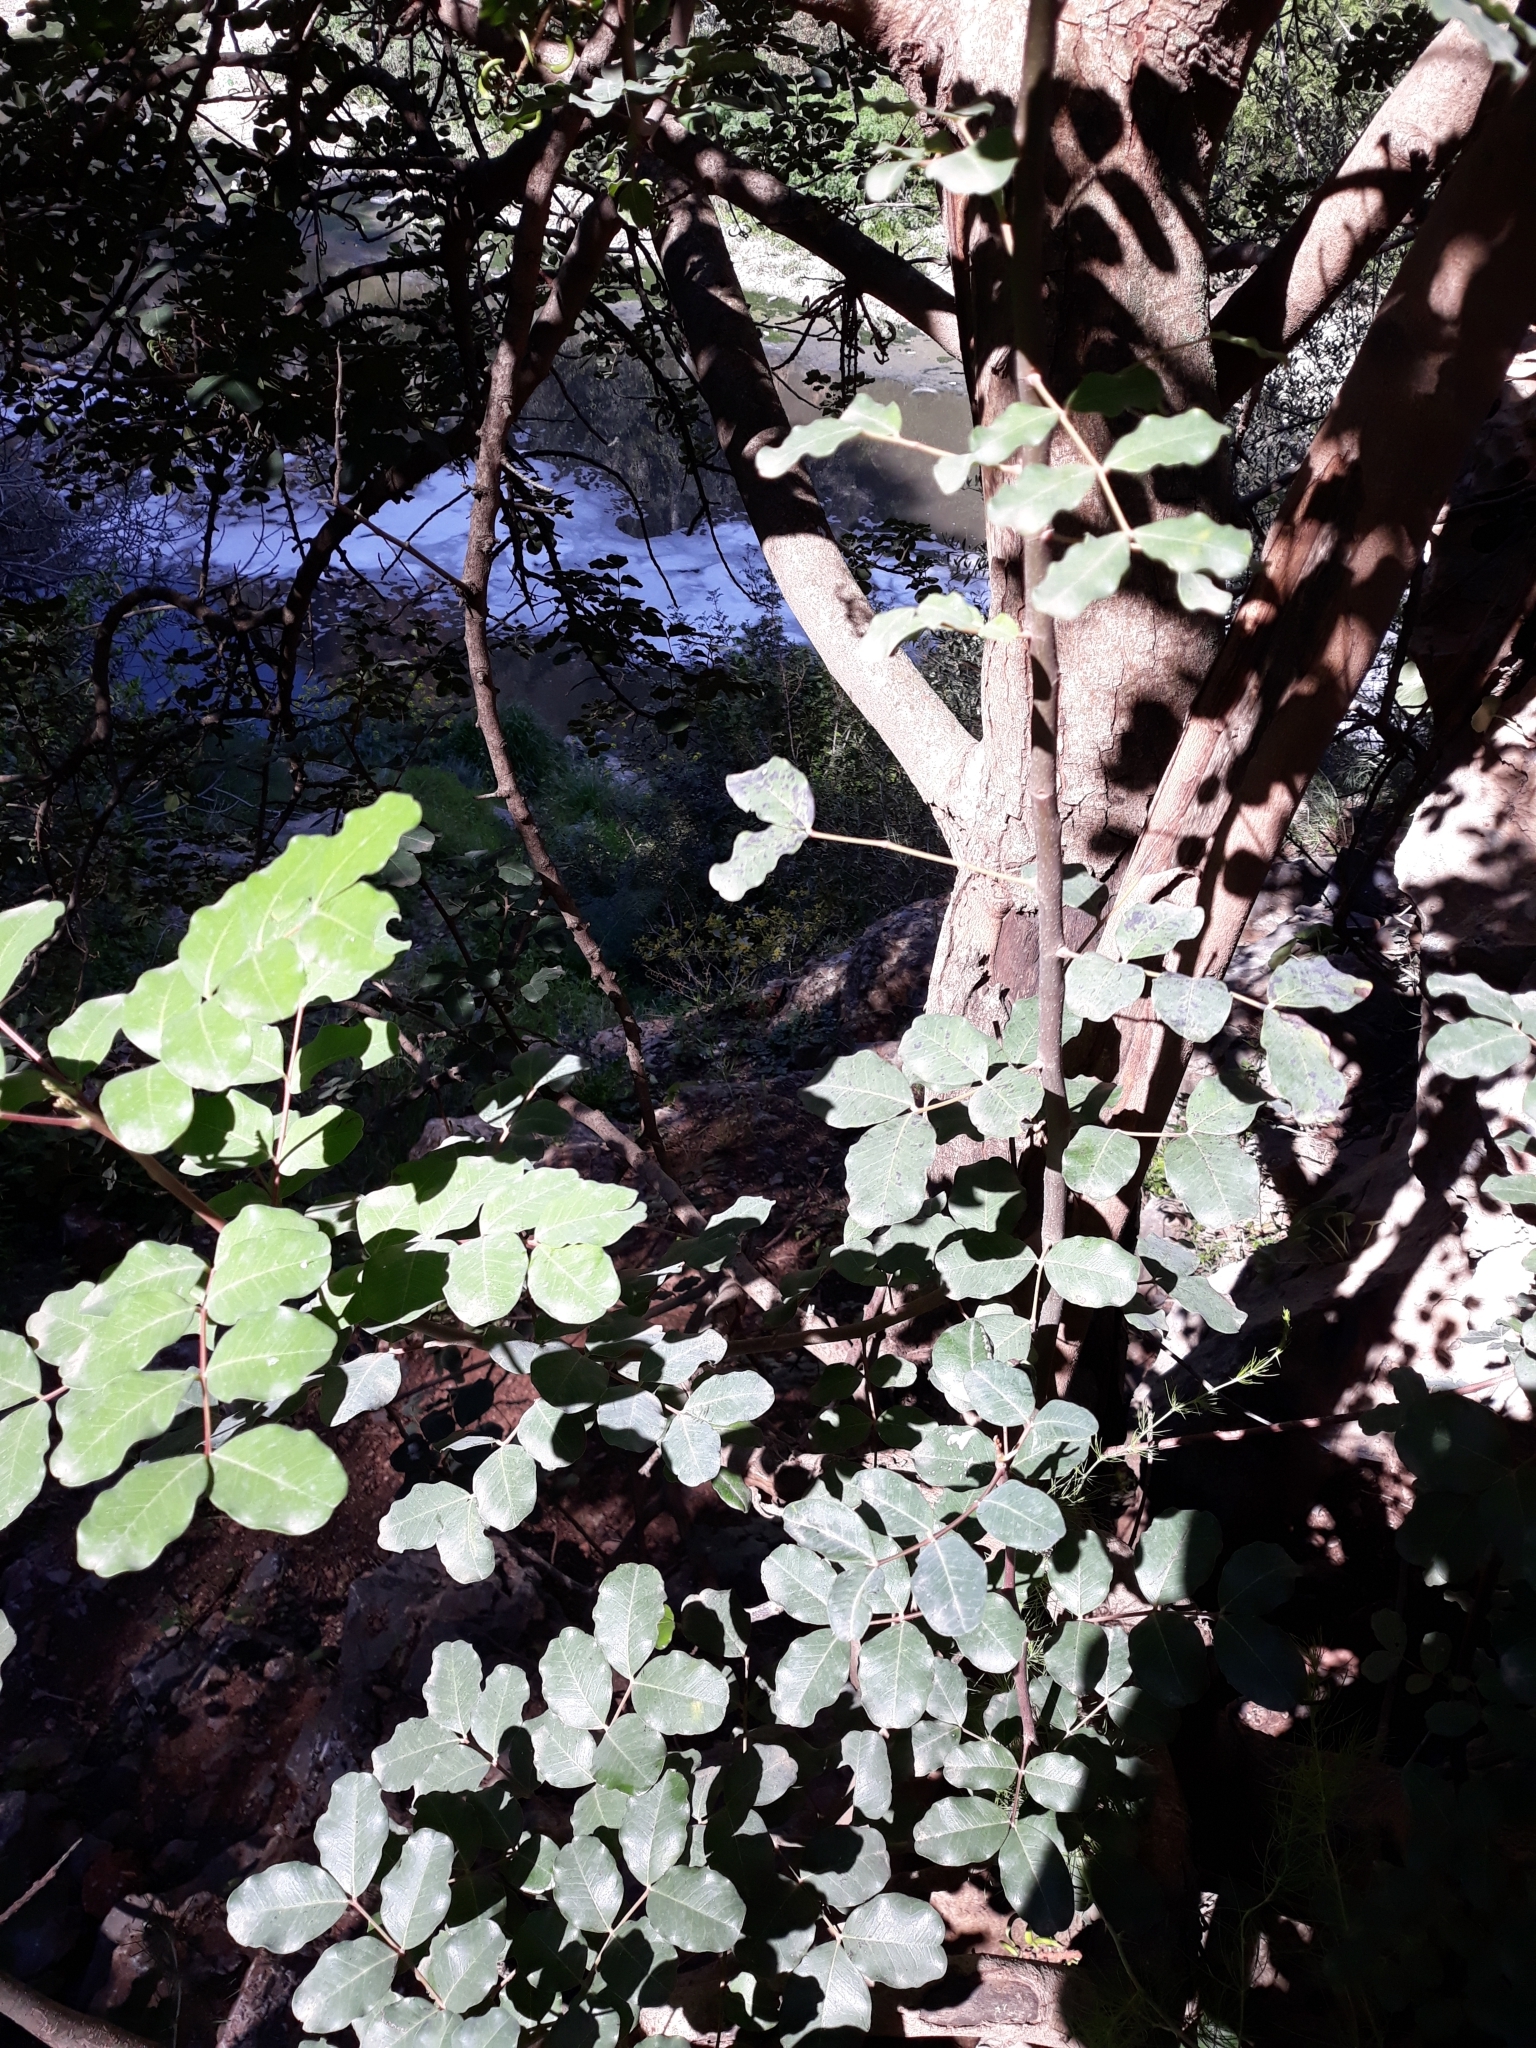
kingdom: Plantae
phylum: Tracheophyta
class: Magnoliopsida
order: Fabales
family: Fabaceae
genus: Ceratonia
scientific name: Ceratonia siliqua
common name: Carob
